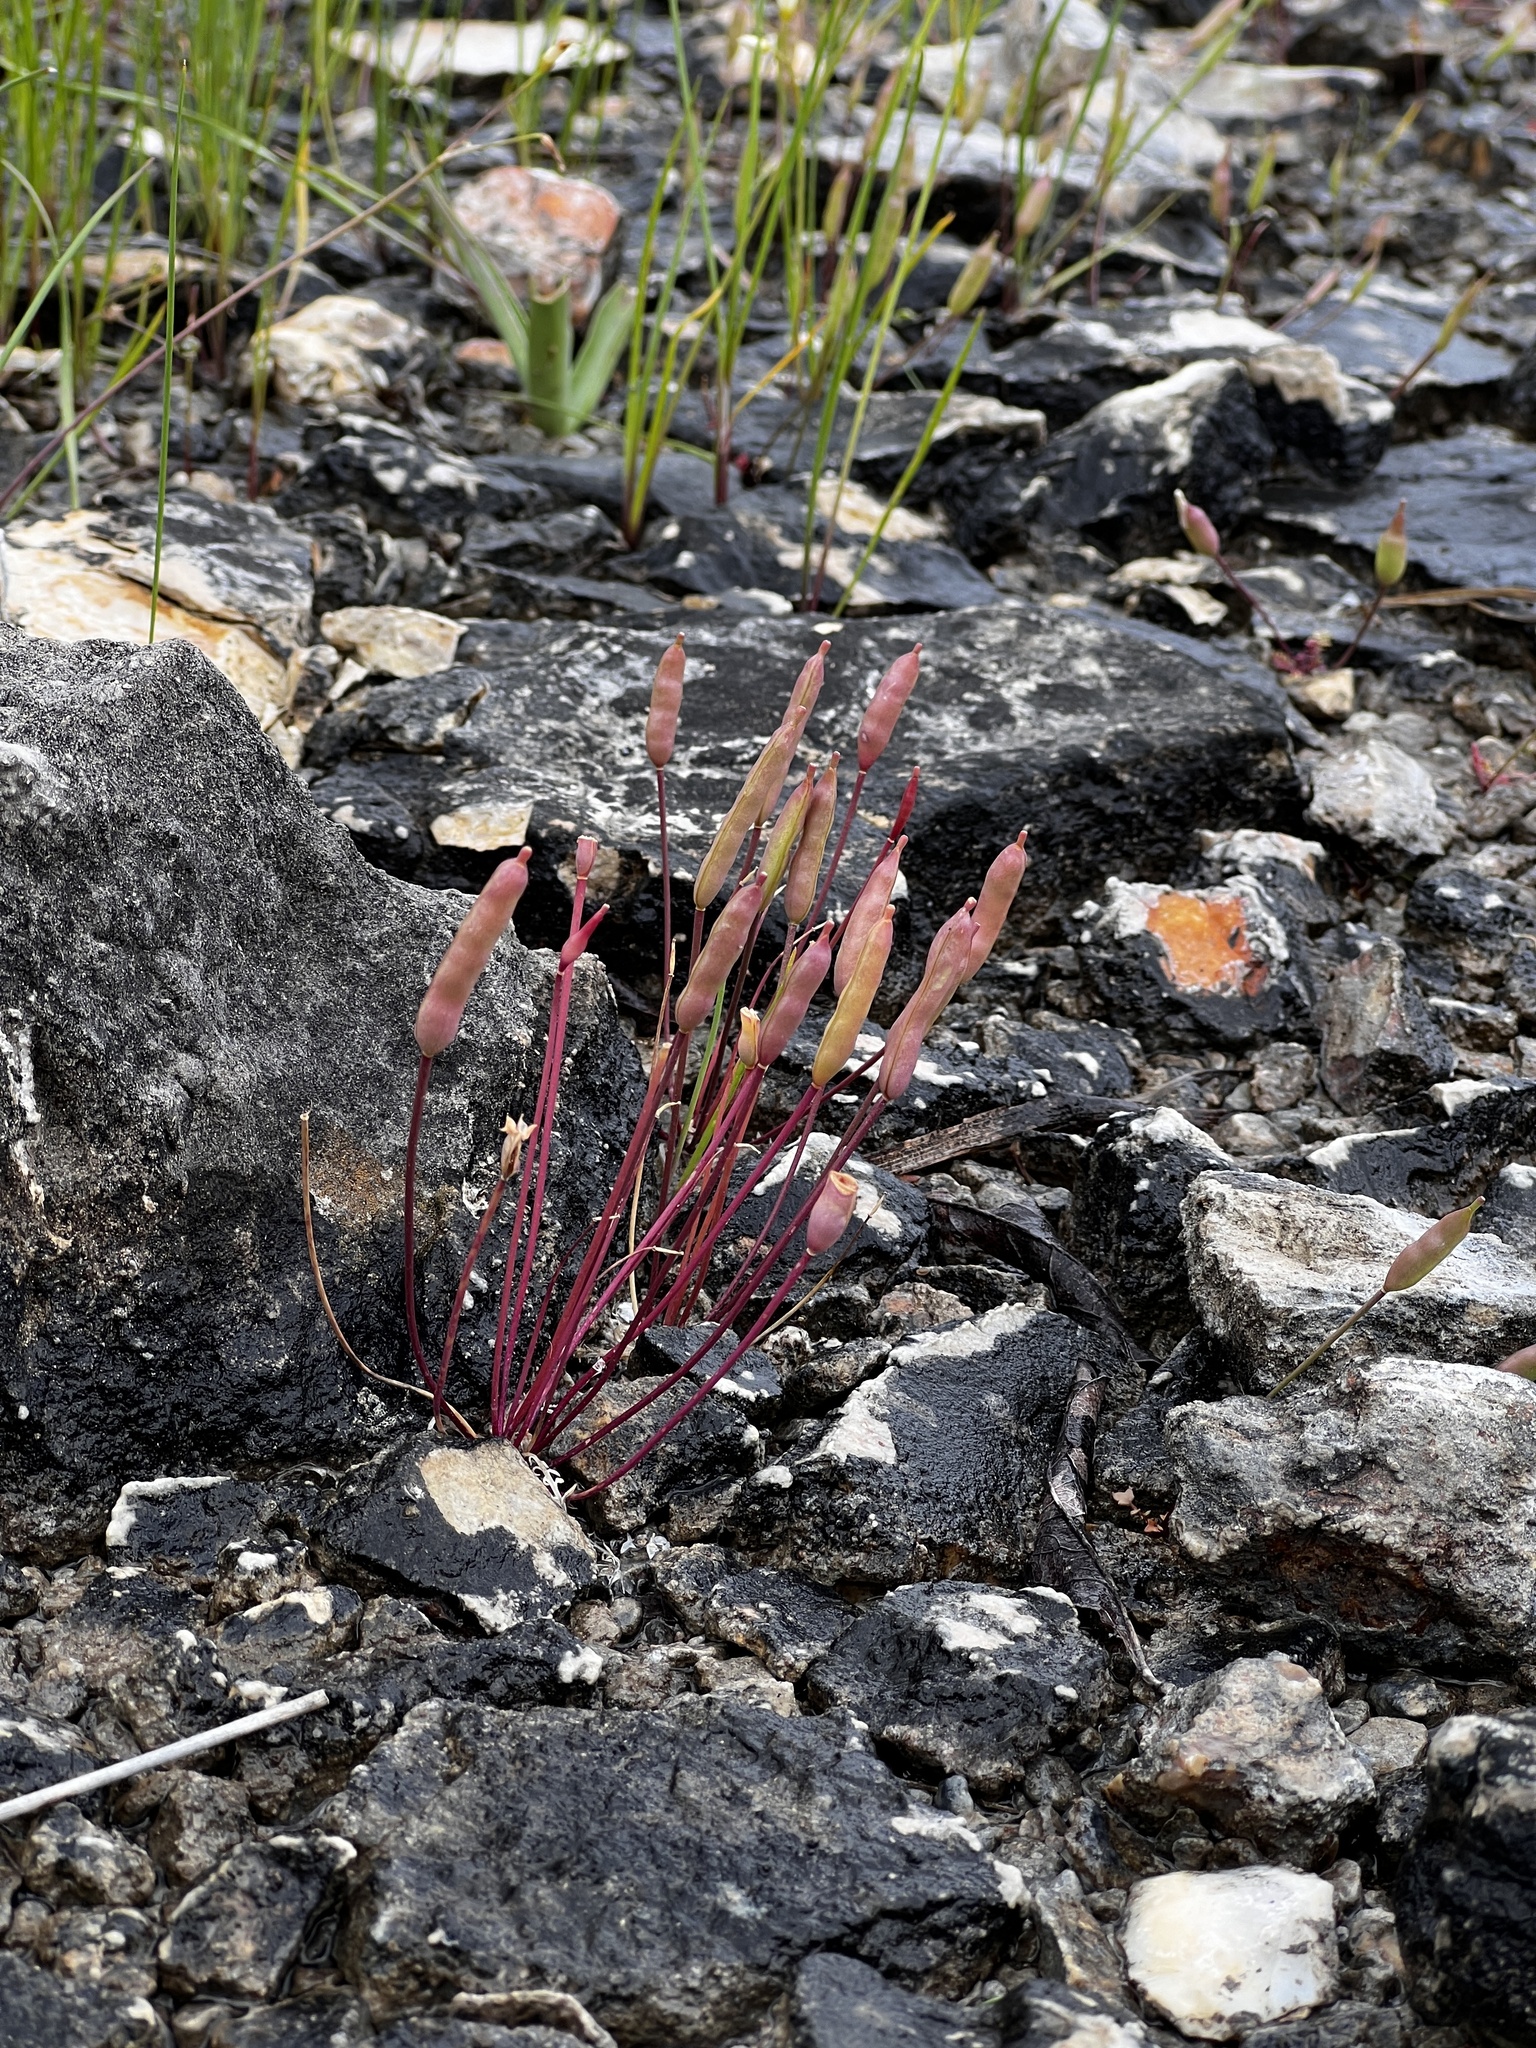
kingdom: Plantae
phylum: Tracheophyta
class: Magnoliopsida
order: Brassicales
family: Brassicaceae
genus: Leavenworthia
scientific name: Leavenworthia uniflora
